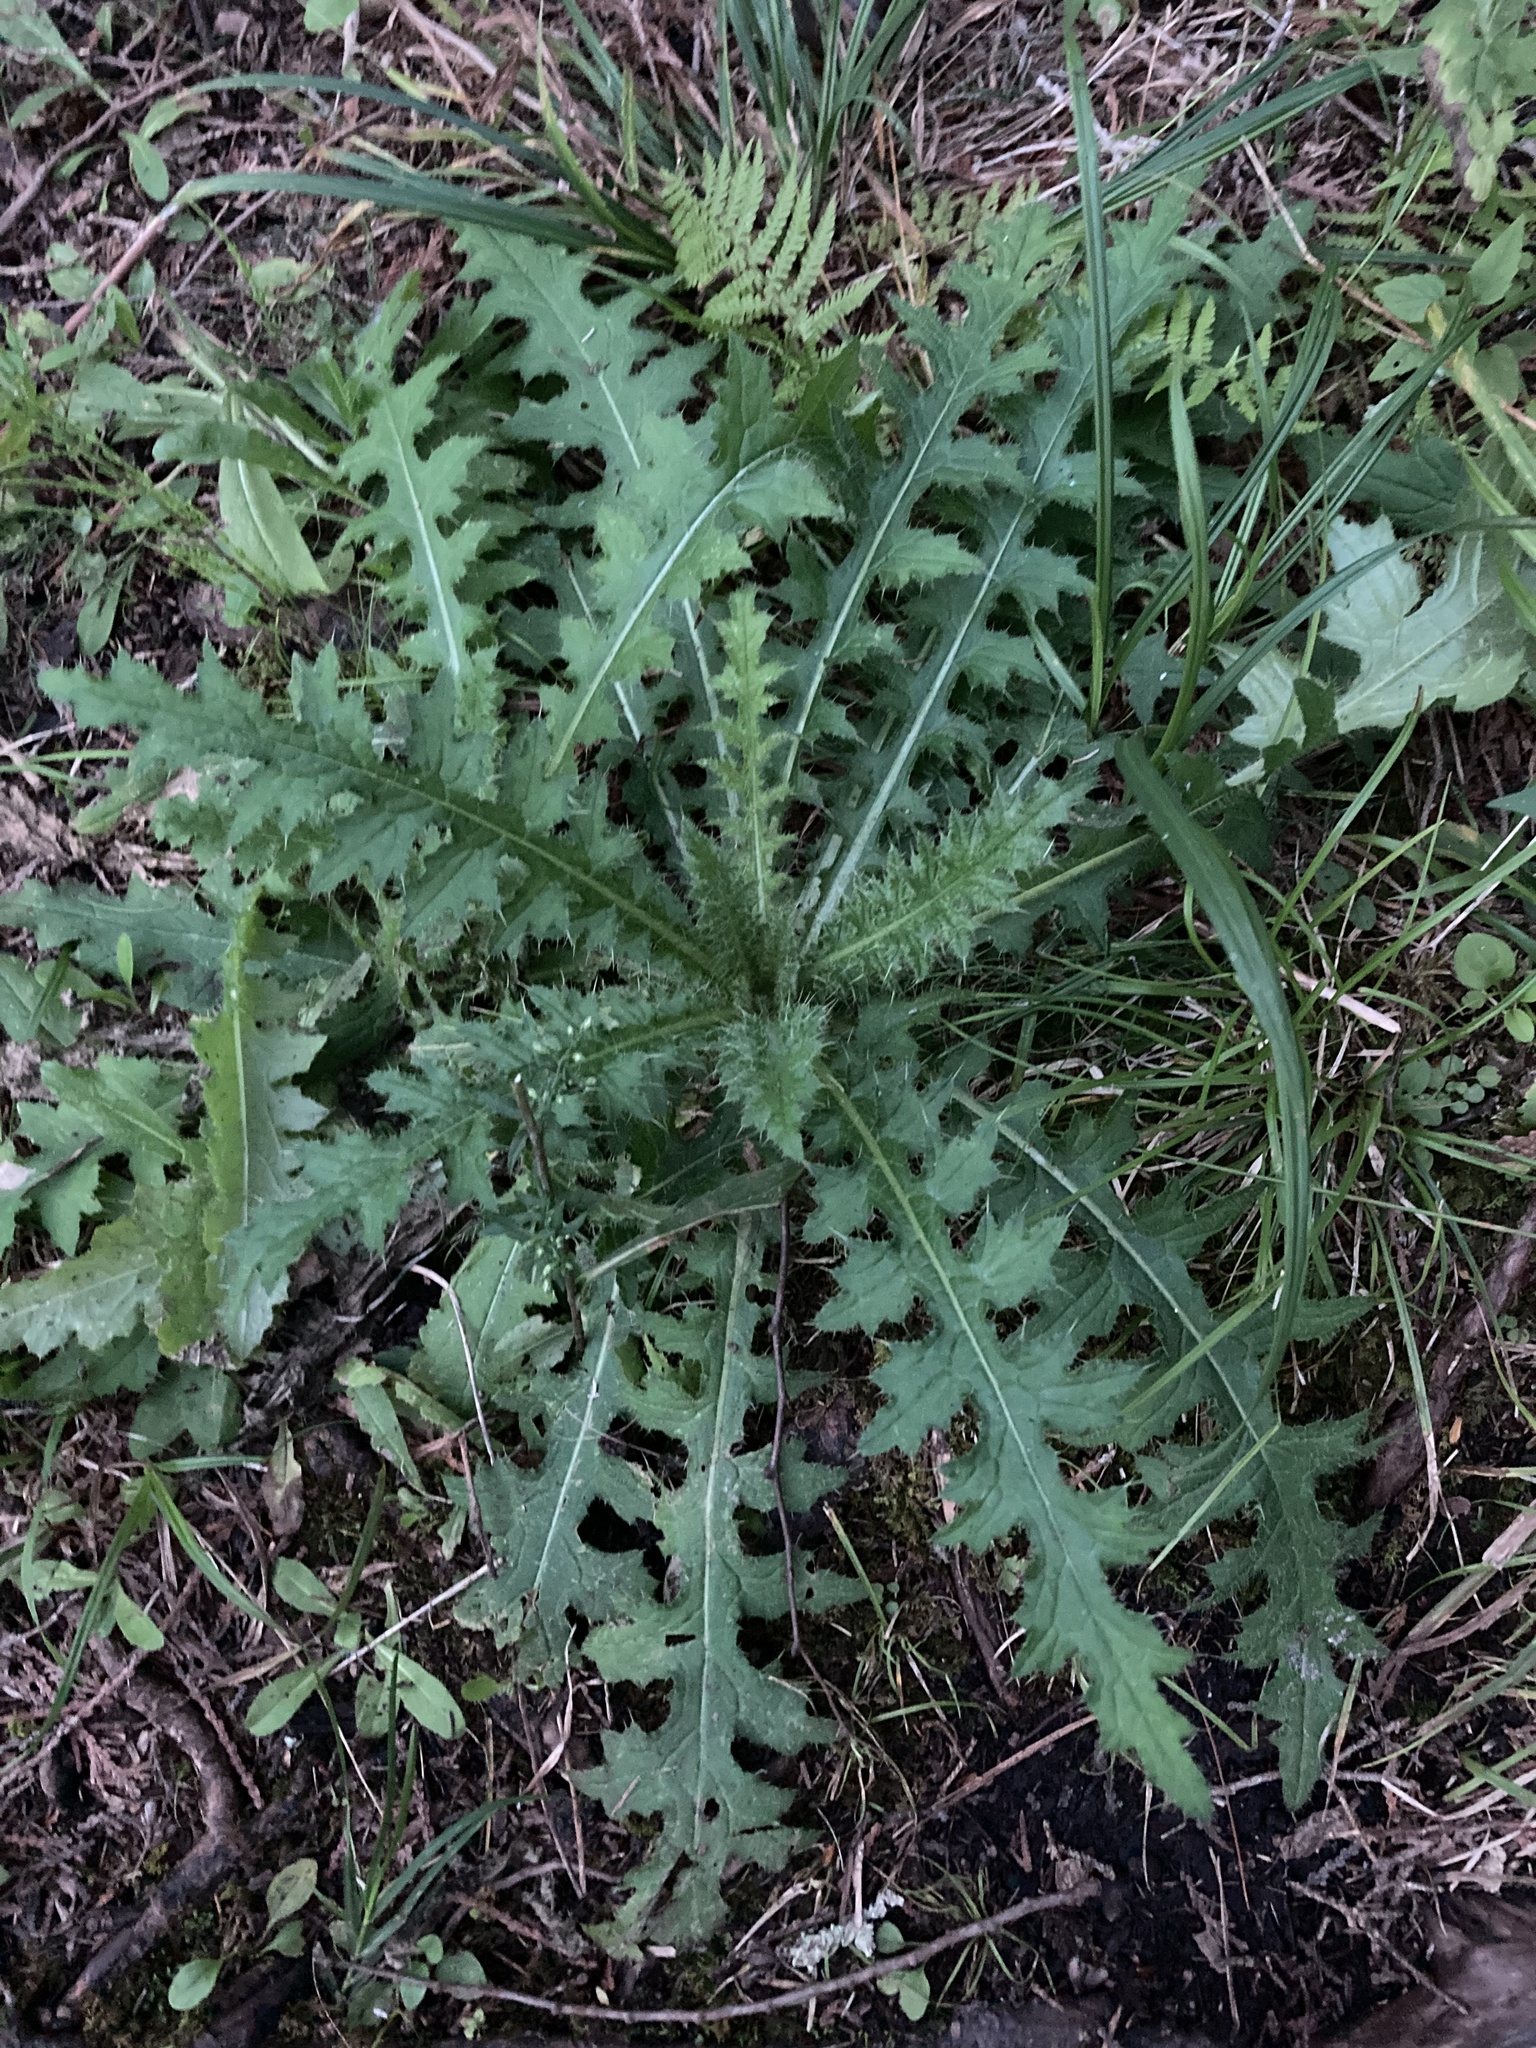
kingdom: Plantae
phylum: Tracheophyta
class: Magnoliopsida
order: Asterales
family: Asteraceae
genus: Cirsium
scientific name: Cirsium palustre
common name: Marsh thistle
